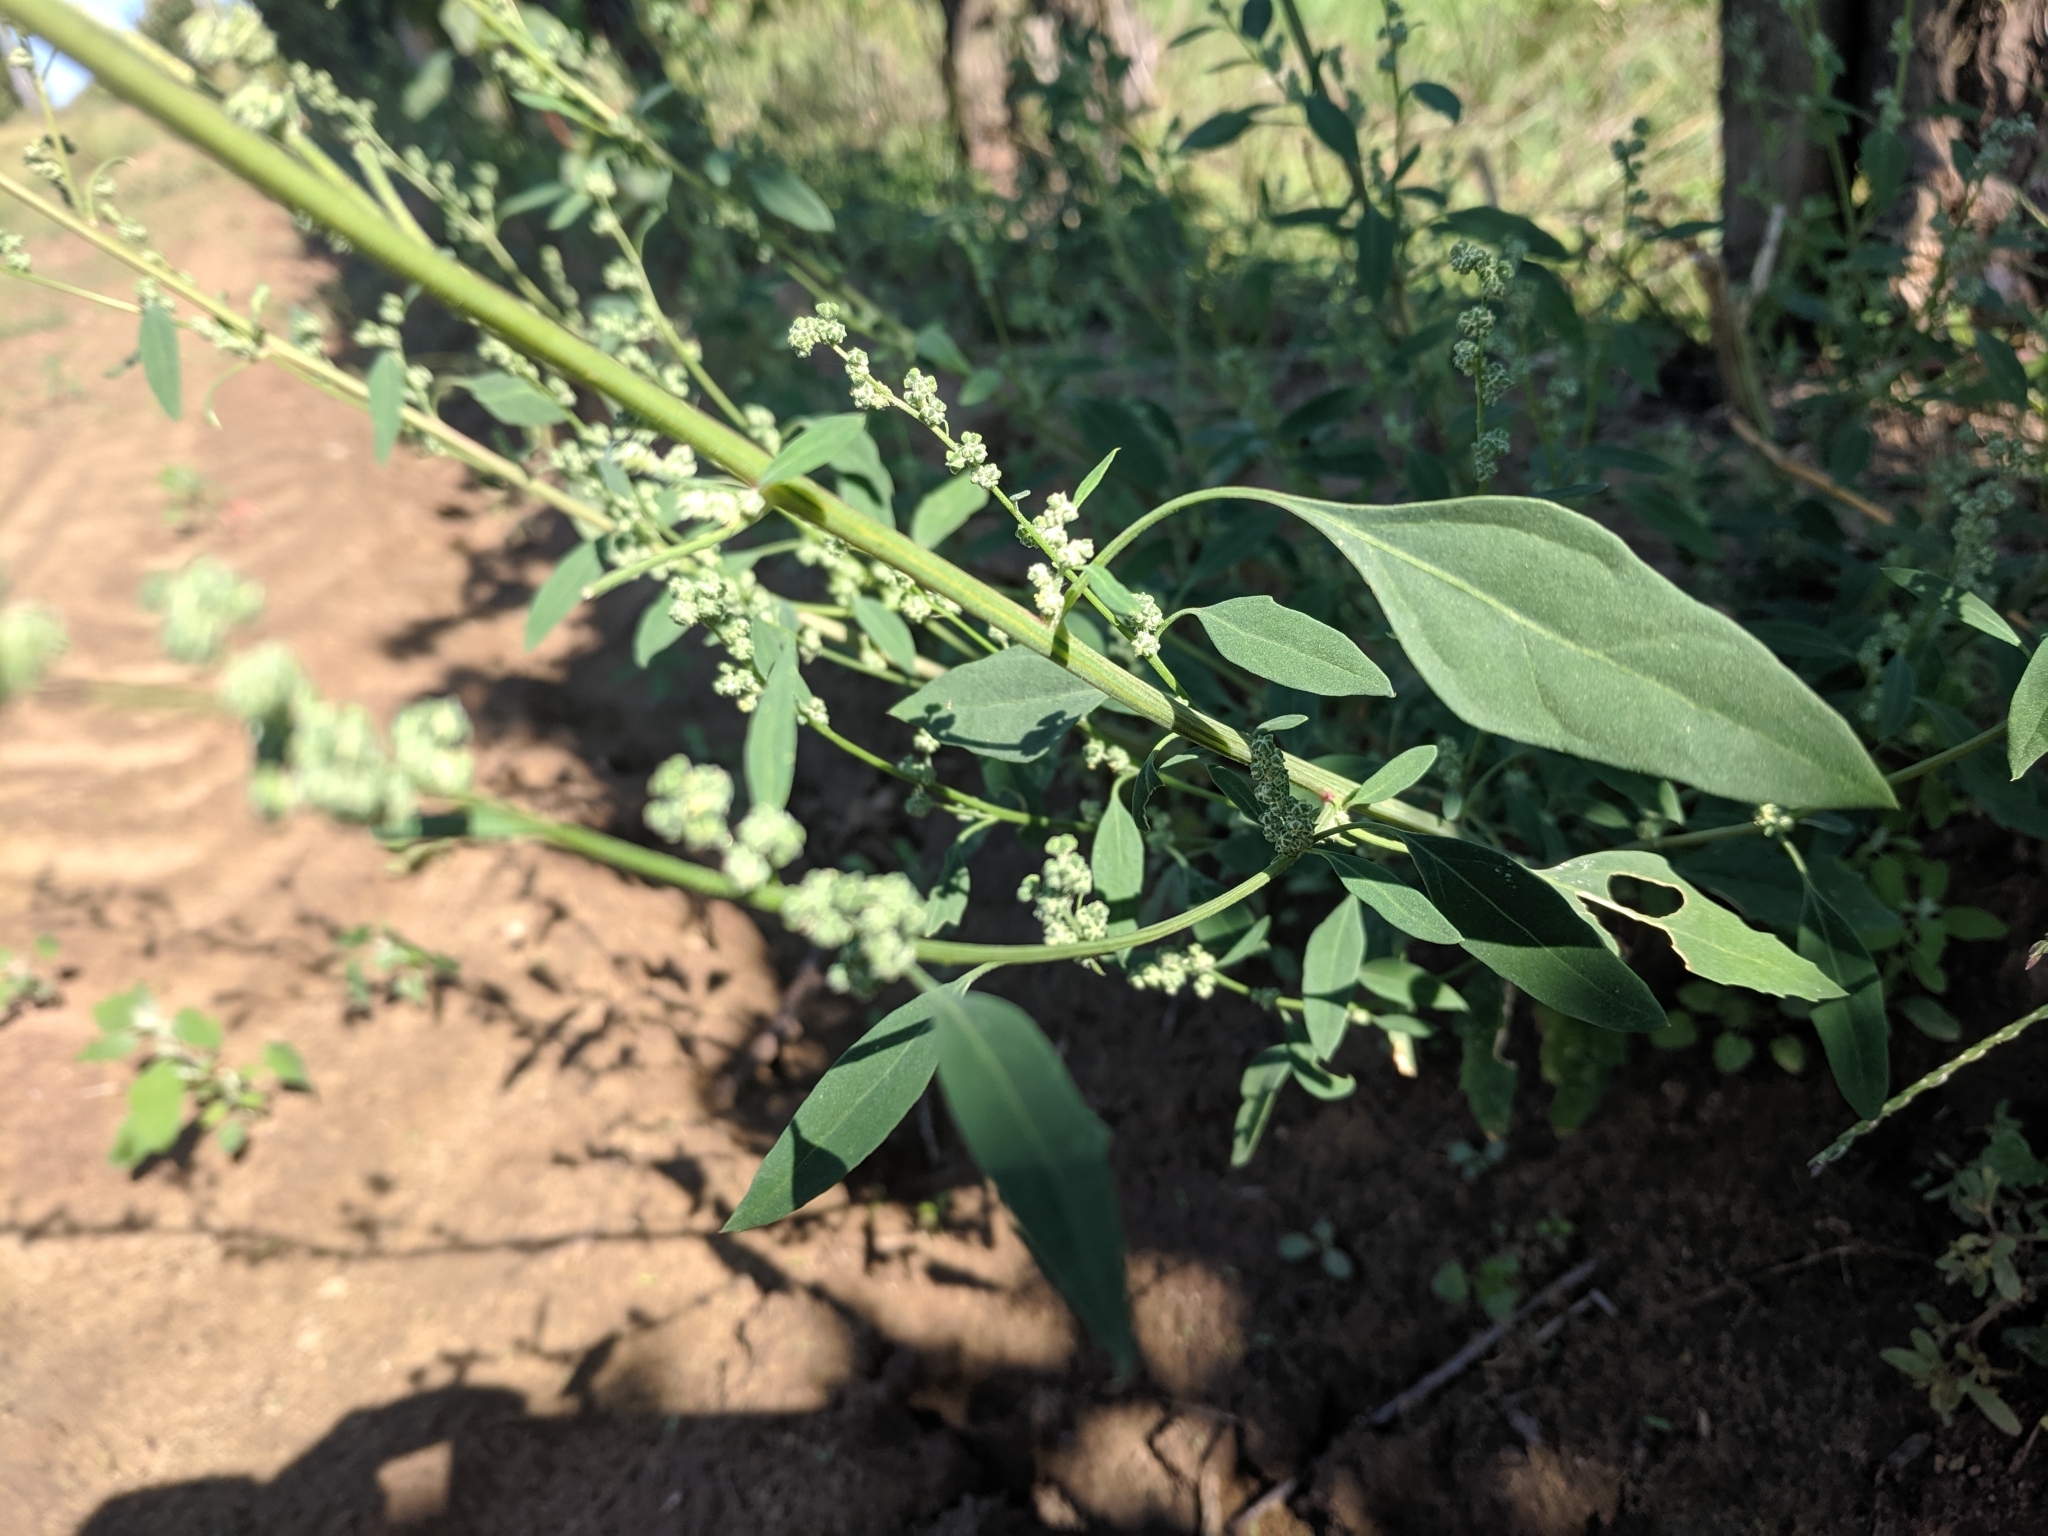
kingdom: Plantae
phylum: Tracheophyta
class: Magnoliopsida
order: Caryophyllales
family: Amaranthaceae
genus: Chenopodium
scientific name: Chenopodium album
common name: Fat-hen
